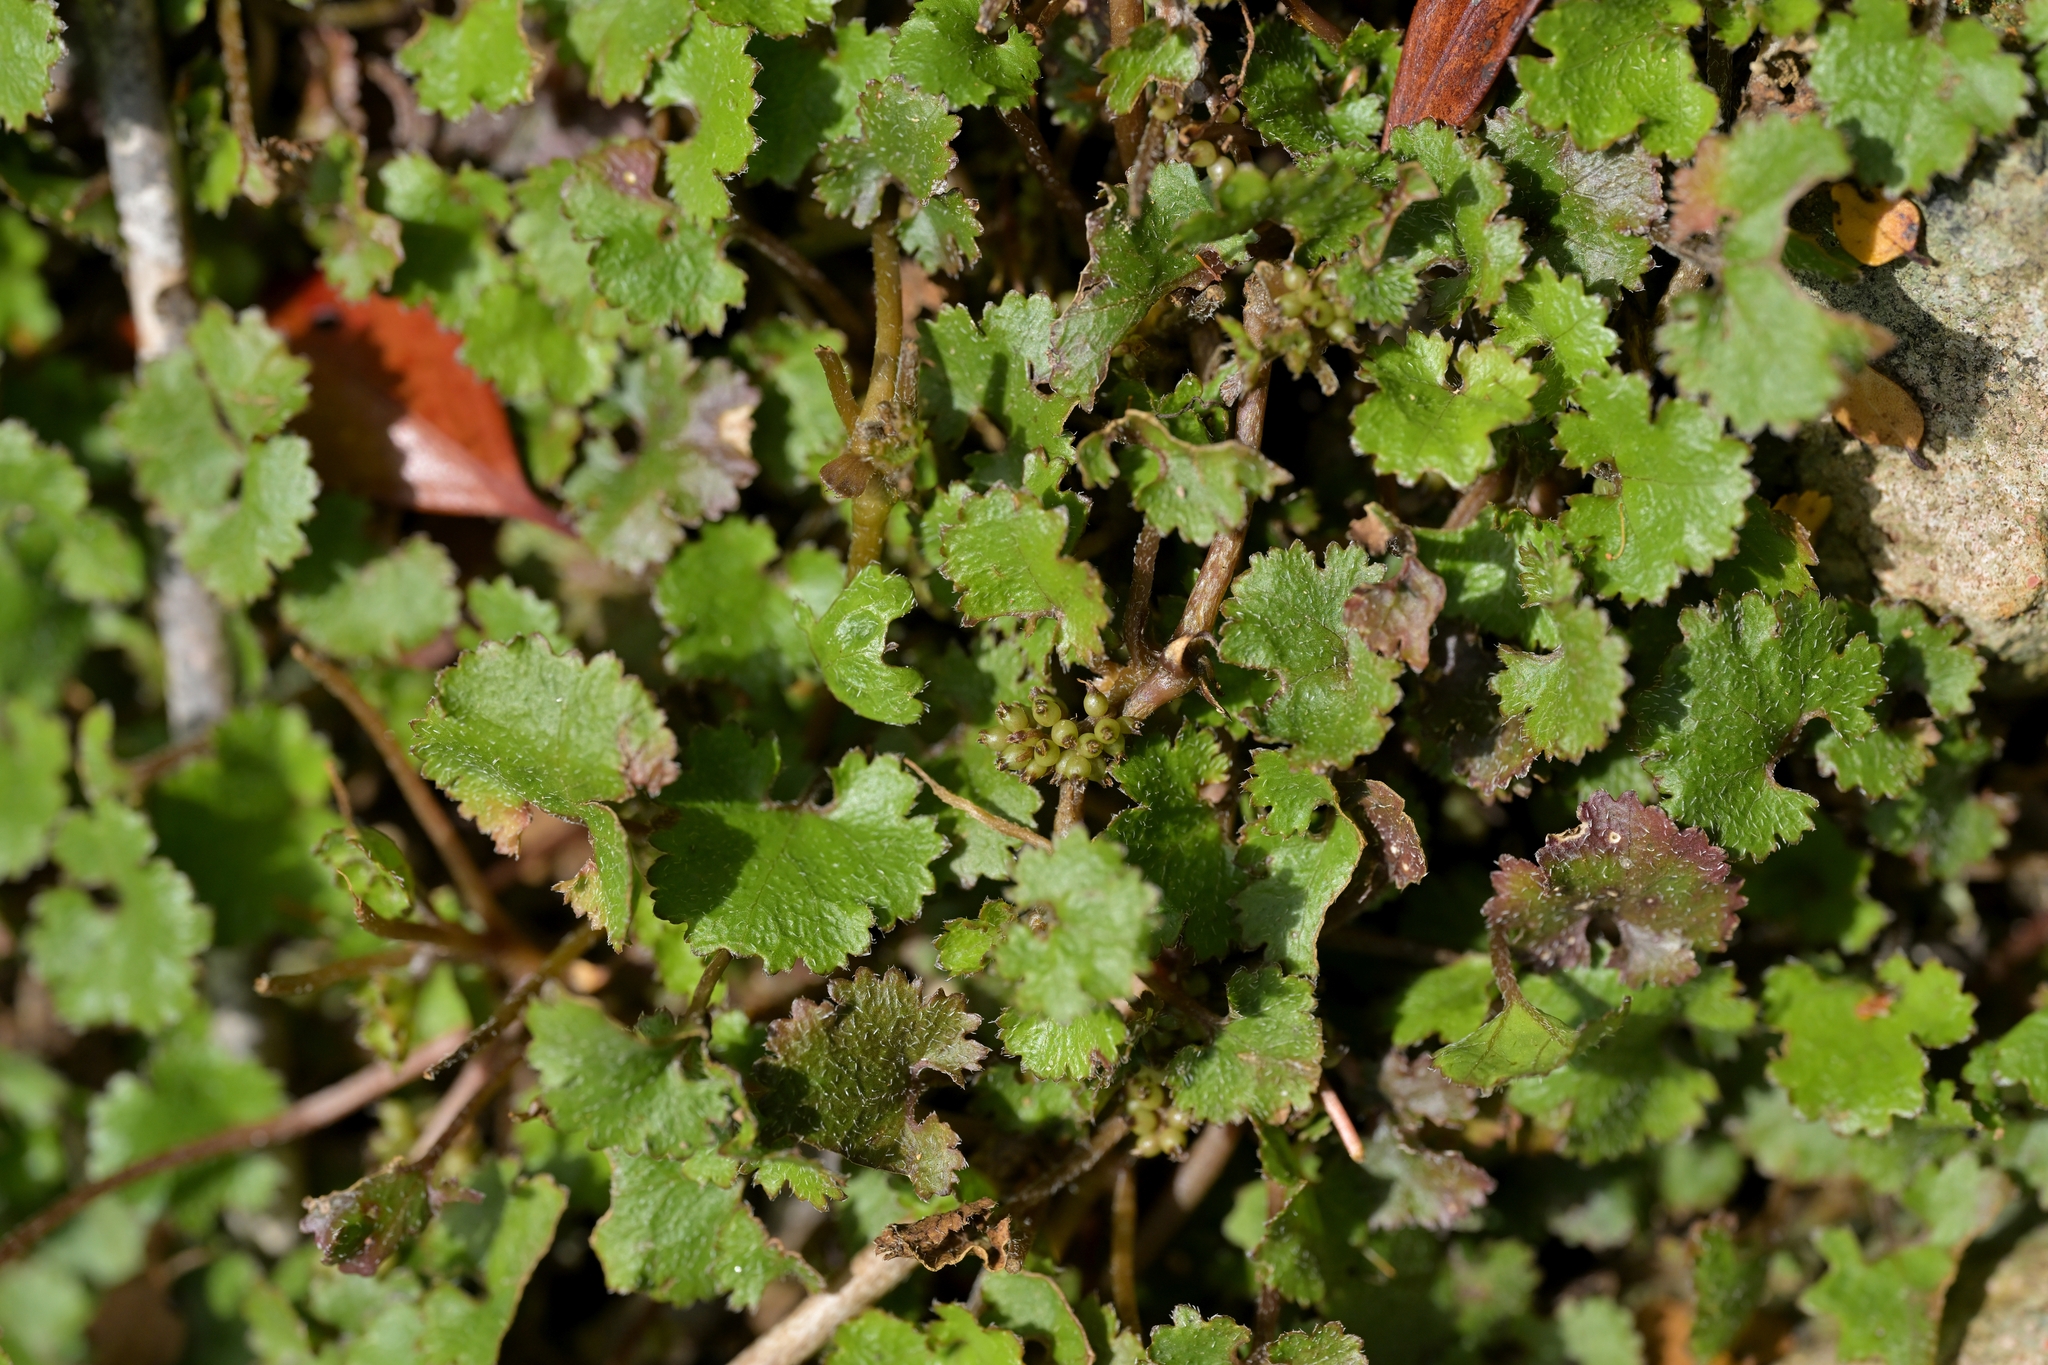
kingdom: Plantae
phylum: Tracheophyta
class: Magnoliopsida
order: Gunnerales
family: Gunneraceae
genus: Gunnera
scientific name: Gunnera monoica
